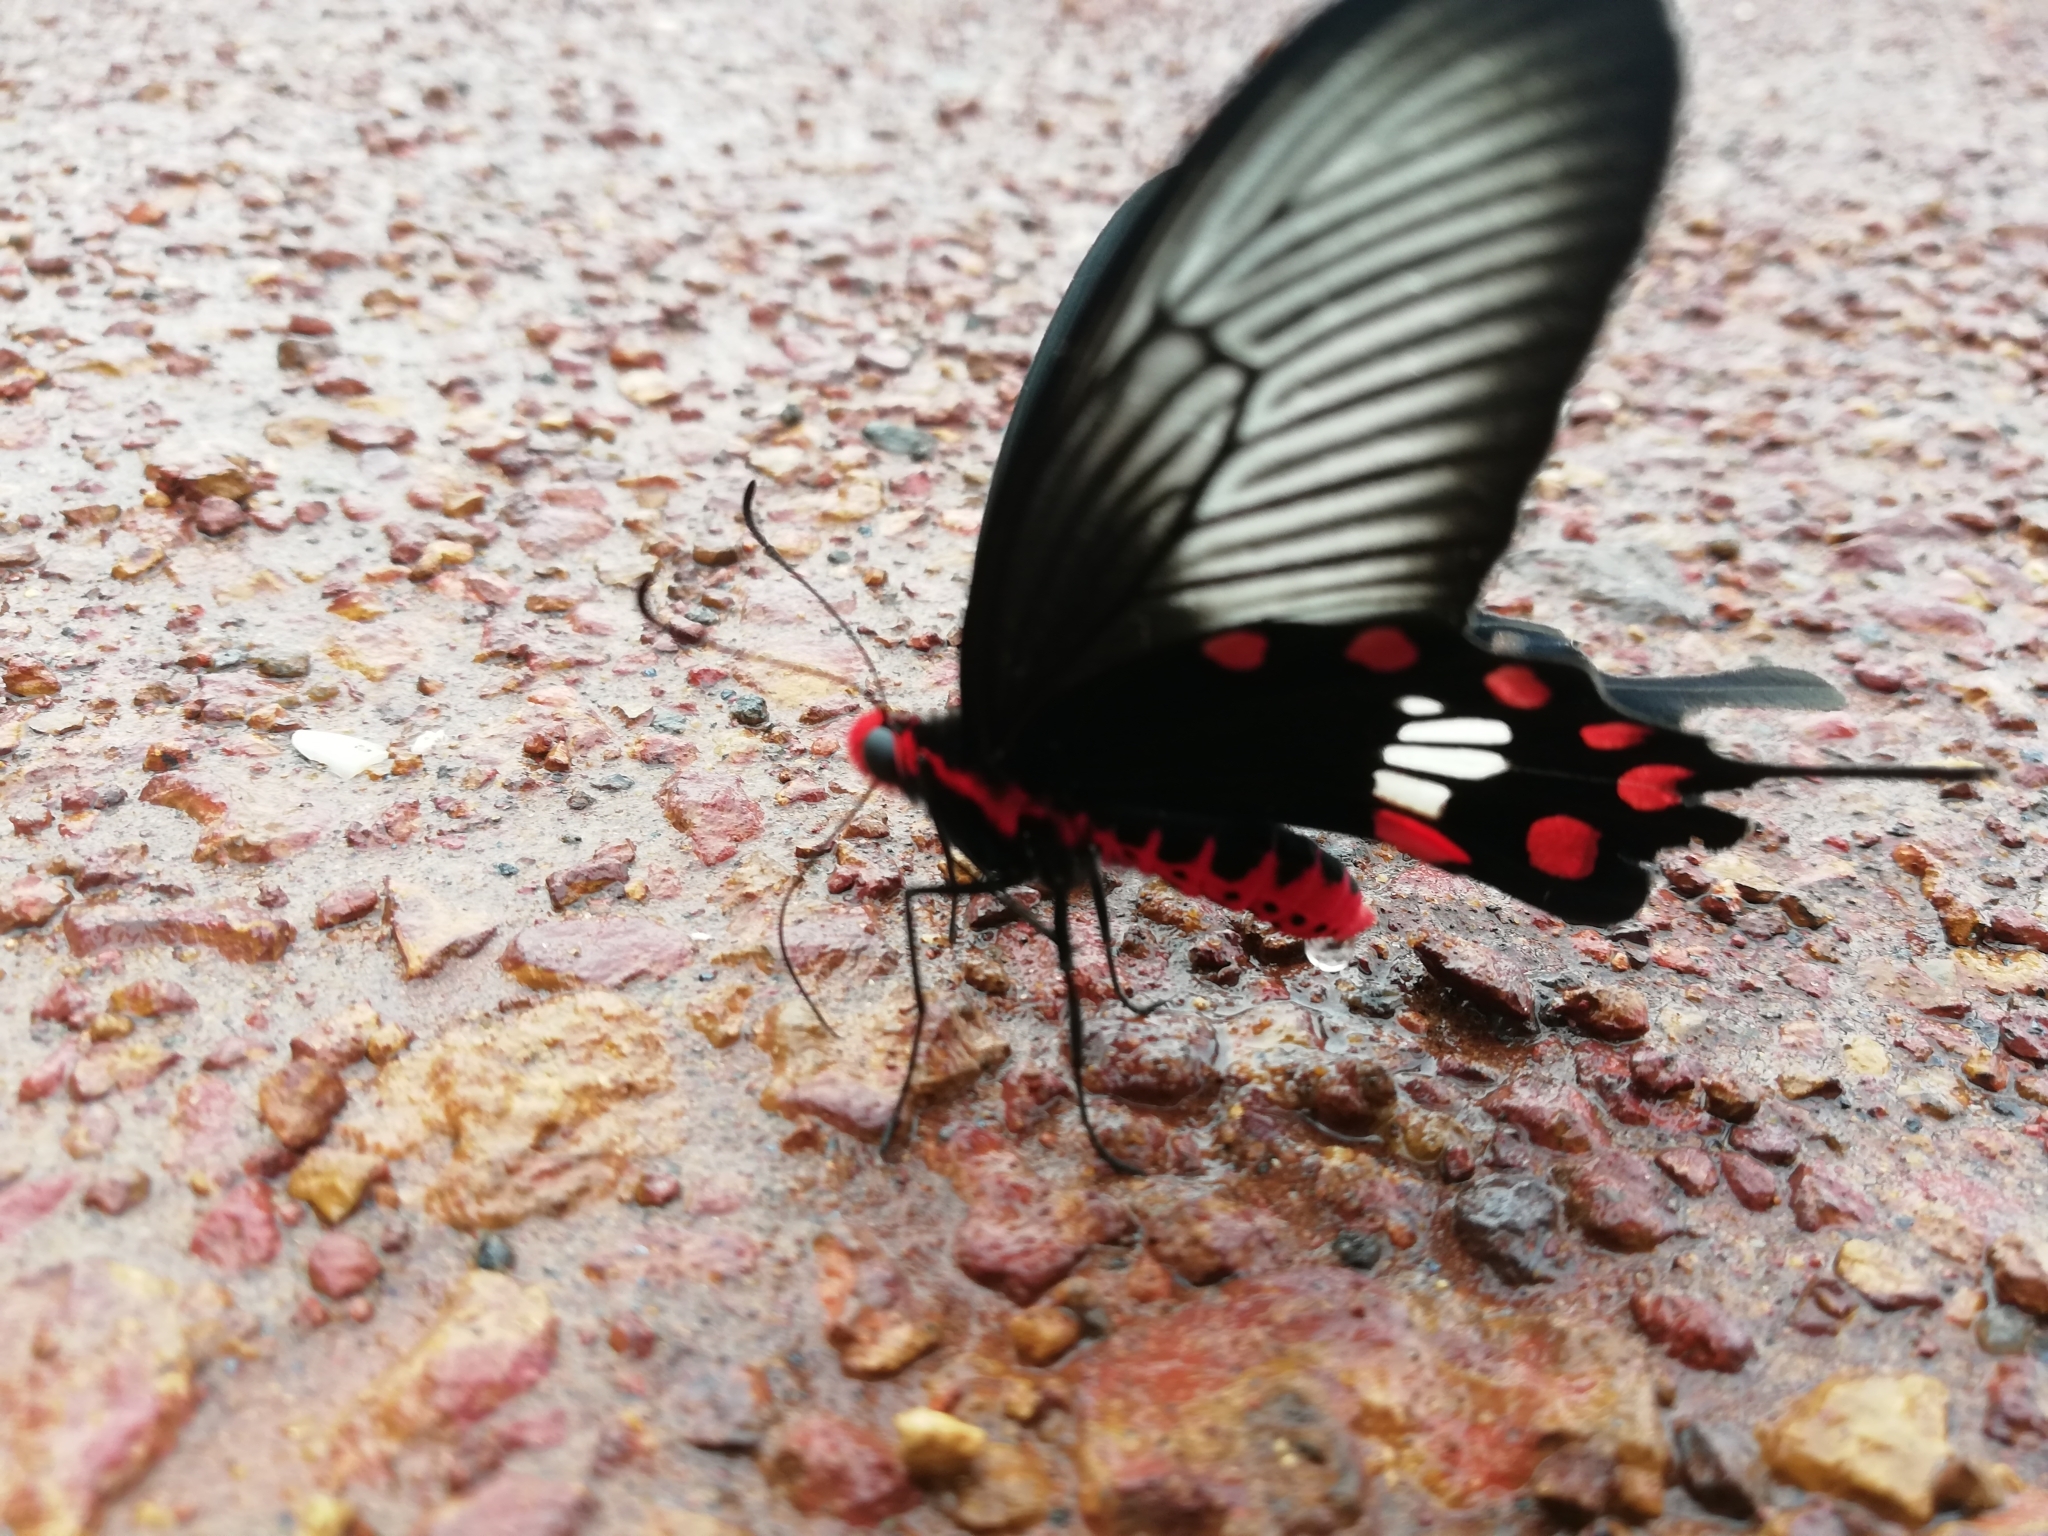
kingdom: Animalia
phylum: Arthropoda
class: Insecta
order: Lepidoptera
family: Papilionidae
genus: Pachliopta
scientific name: Pachliopta aristolochiae
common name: Common rose
